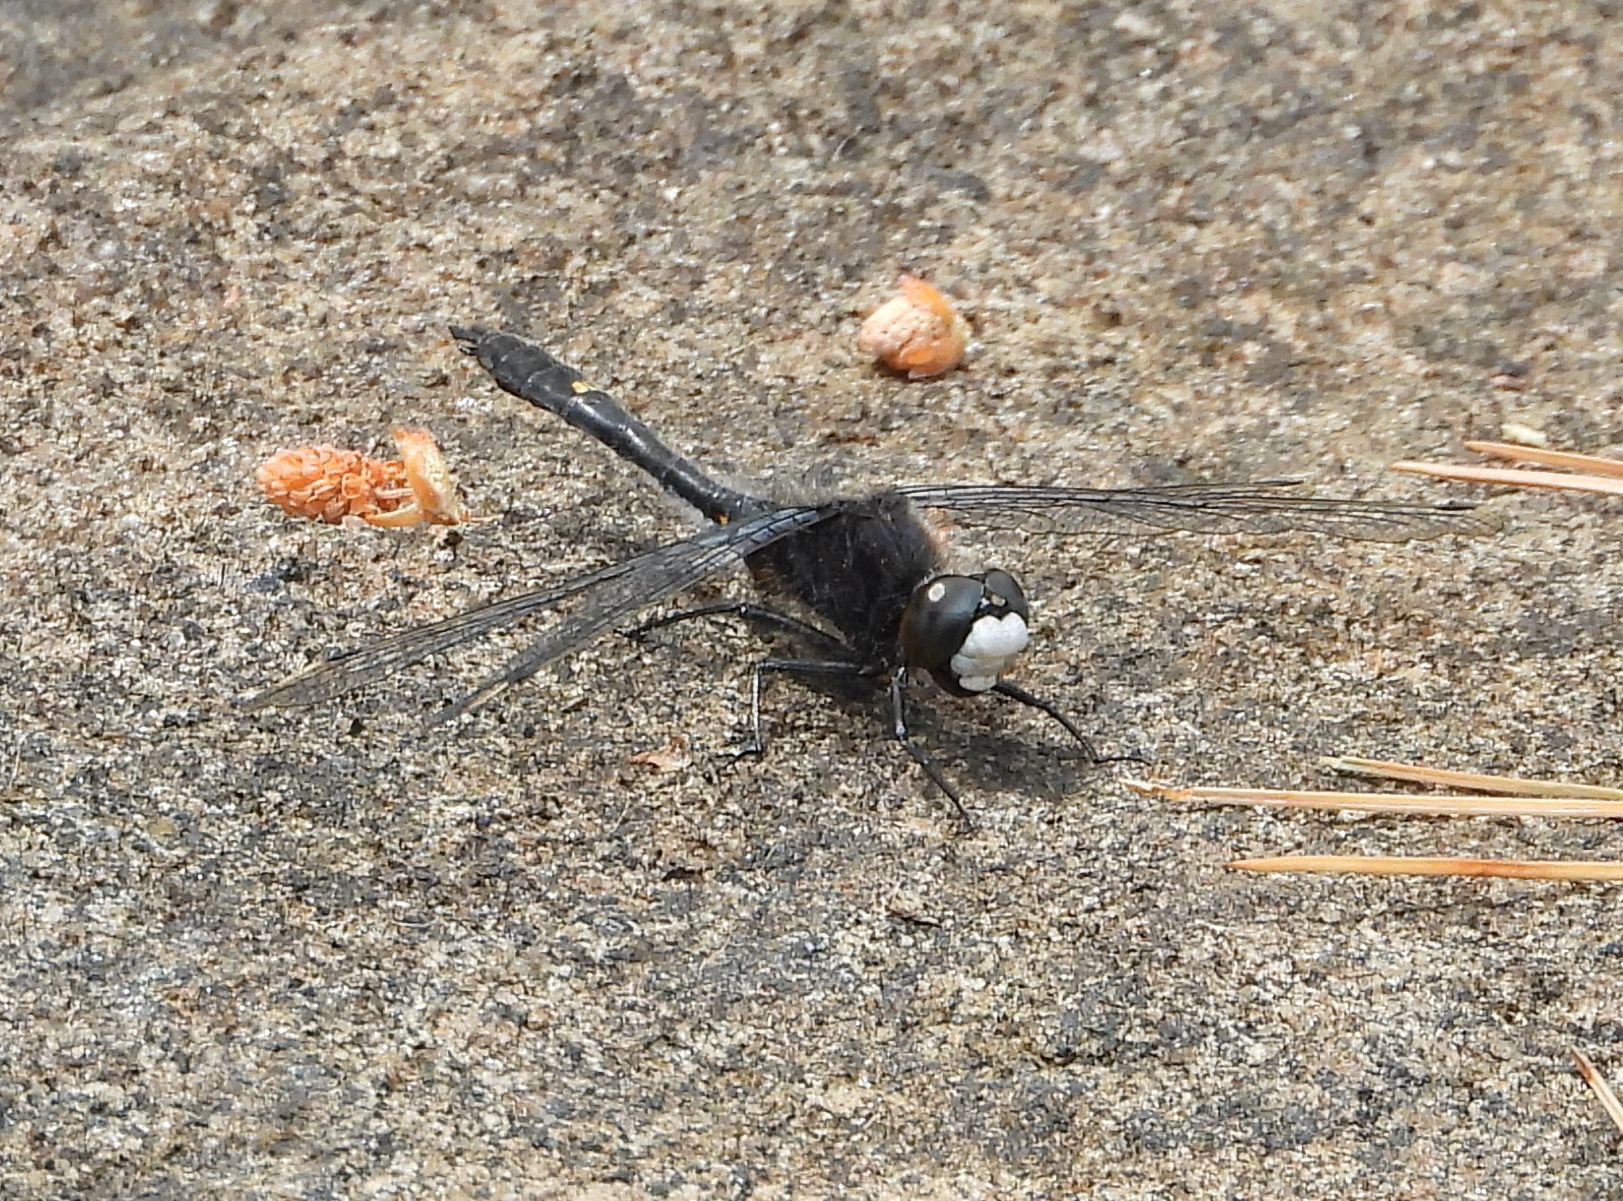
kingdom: Animalia
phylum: Arthropoda
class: Insecta
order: Odonata
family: Libellulidae
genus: Leucorrhinia
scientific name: Leucorrhinia intacta
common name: Dot-tailed whiteface
